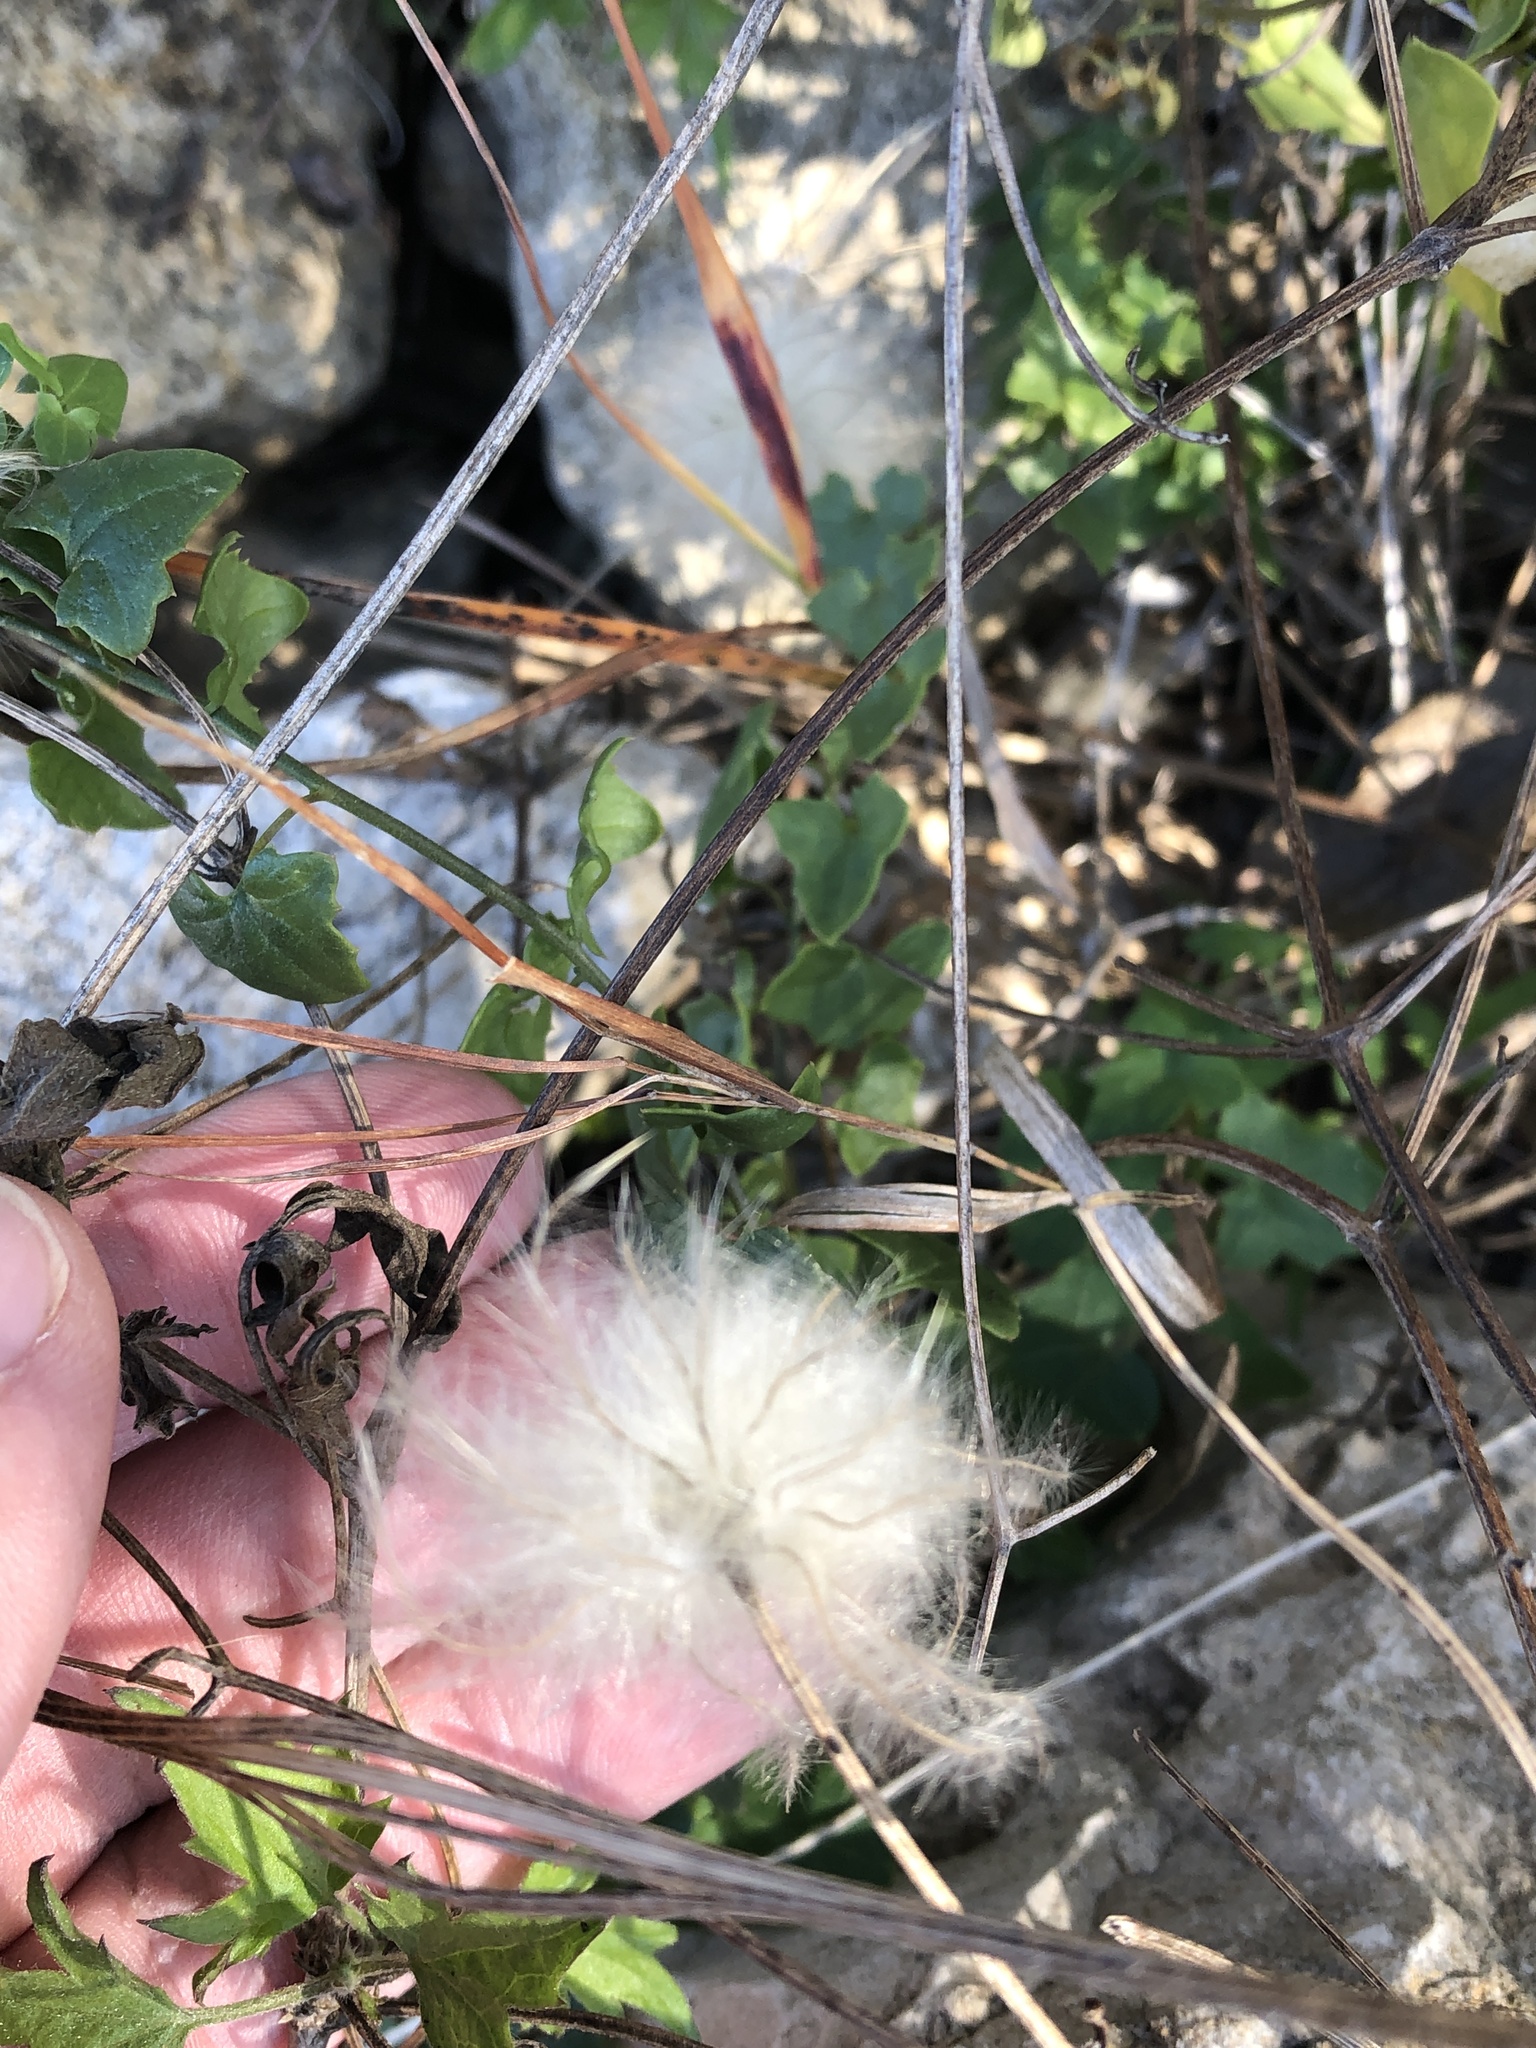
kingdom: Plantae
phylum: Tracheophyta
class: Magnoliopsida
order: Ranunculales
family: Ranunculaceae
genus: Clematis
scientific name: Clematis drummondii
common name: Texas virgin's bower
